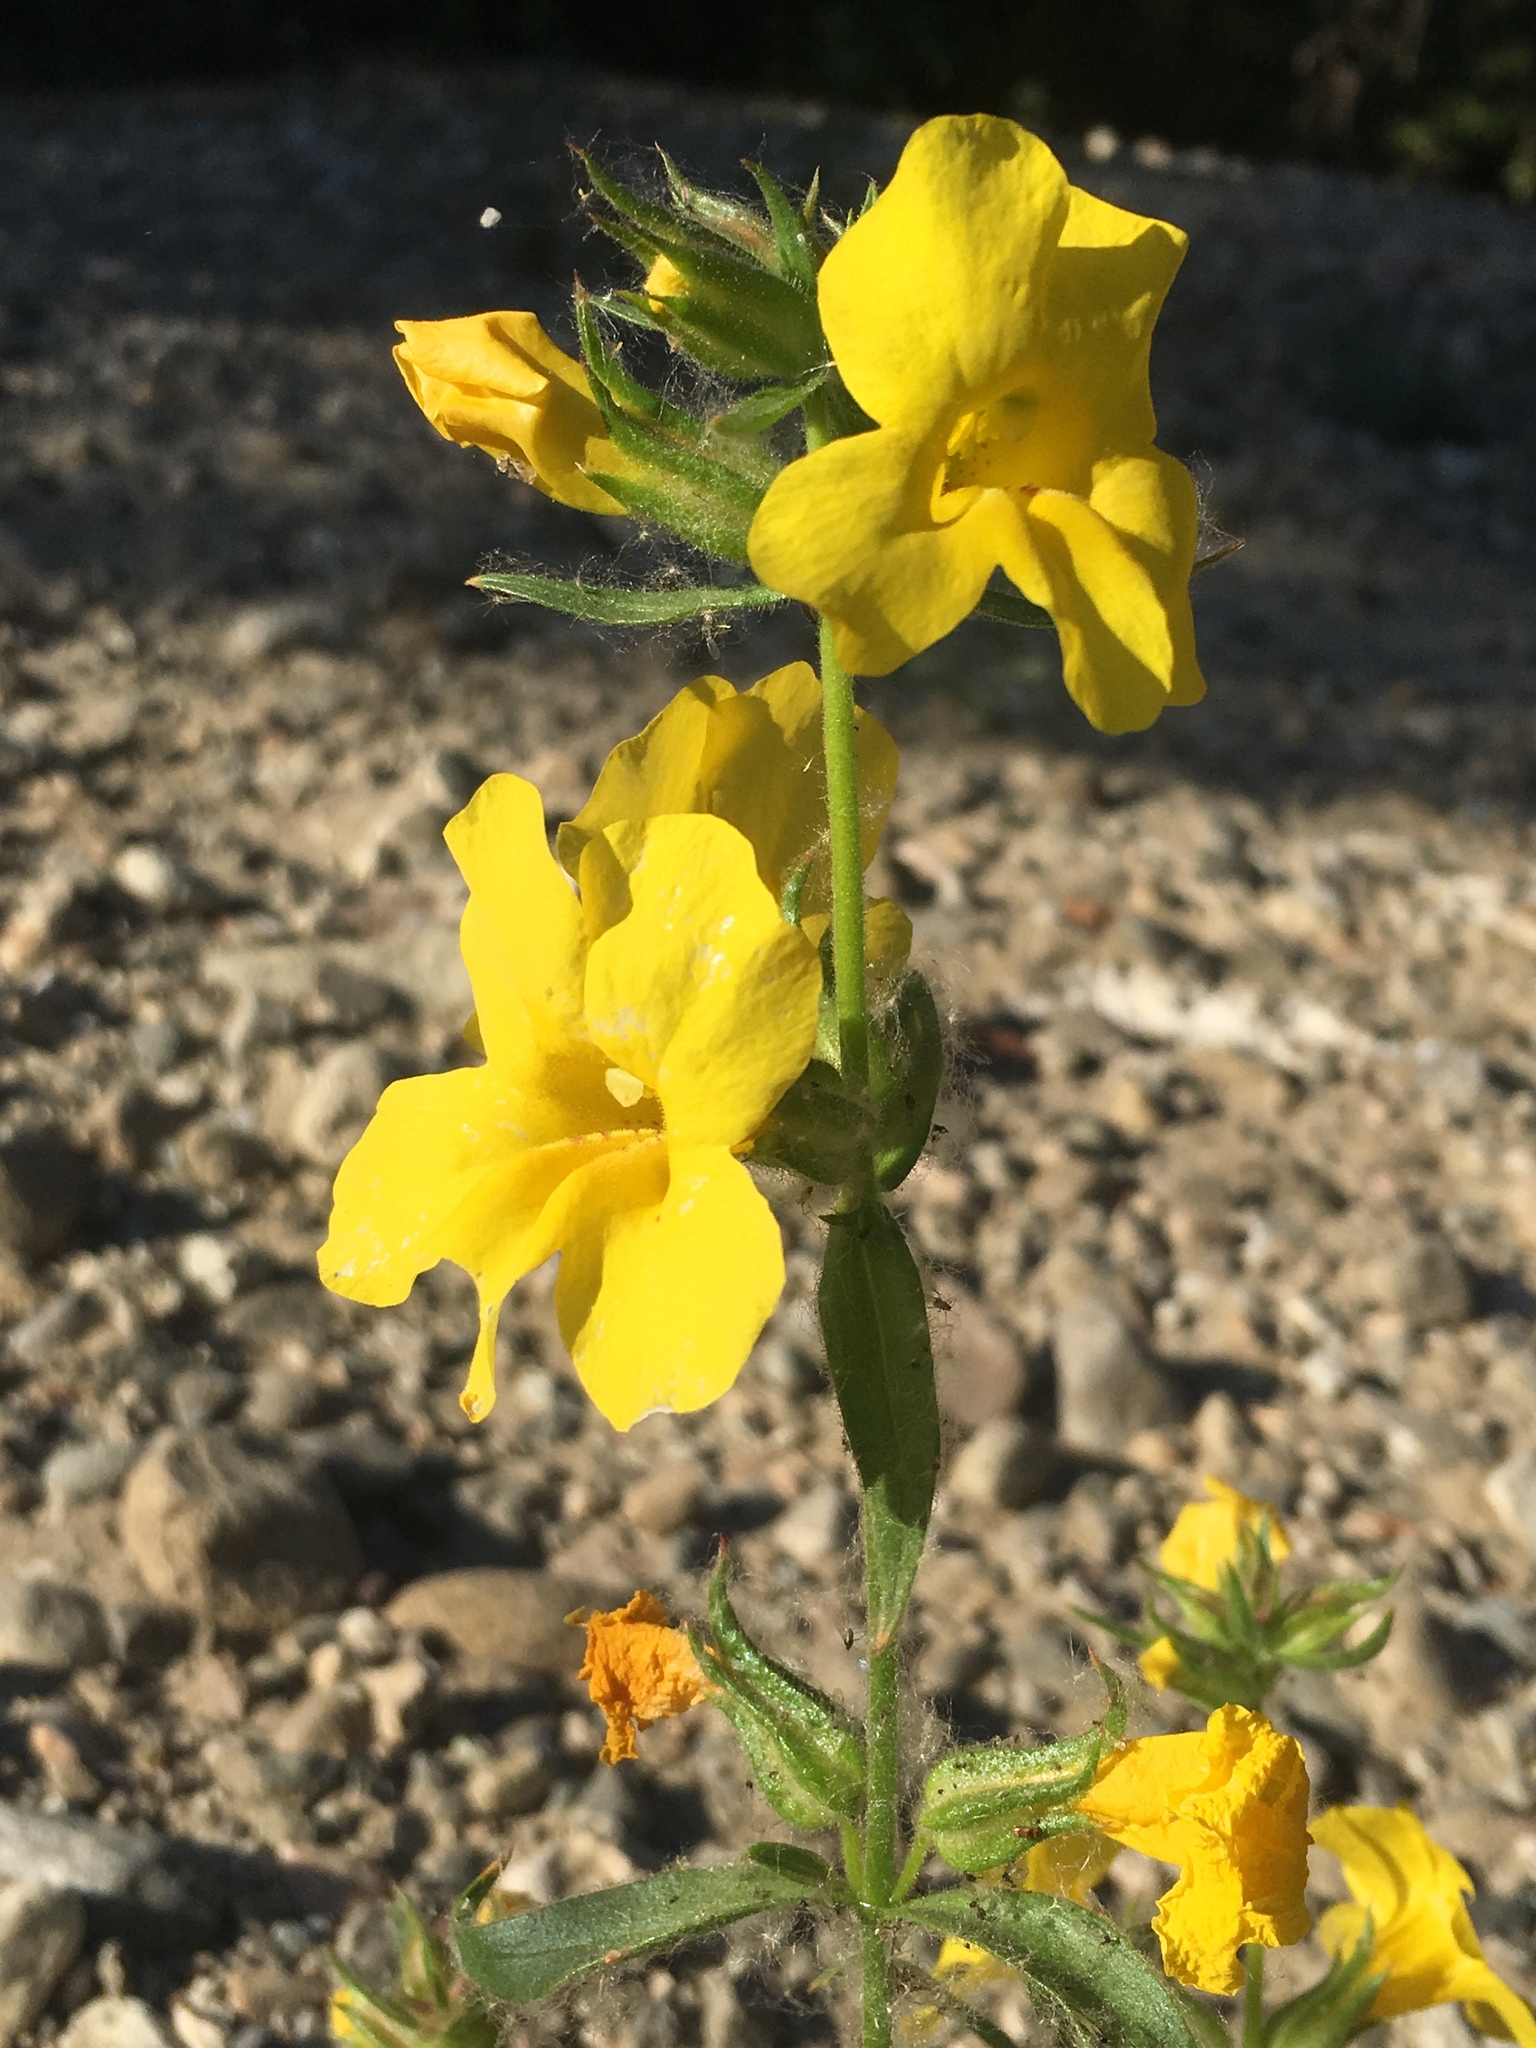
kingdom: Plantae
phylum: Tracheophyta
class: Magnoliopsida
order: Lamiales
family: Phrymaceae
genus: Diplacus
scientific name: Diplacus brevipes
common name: Wide-throat yellow monkey-flower
